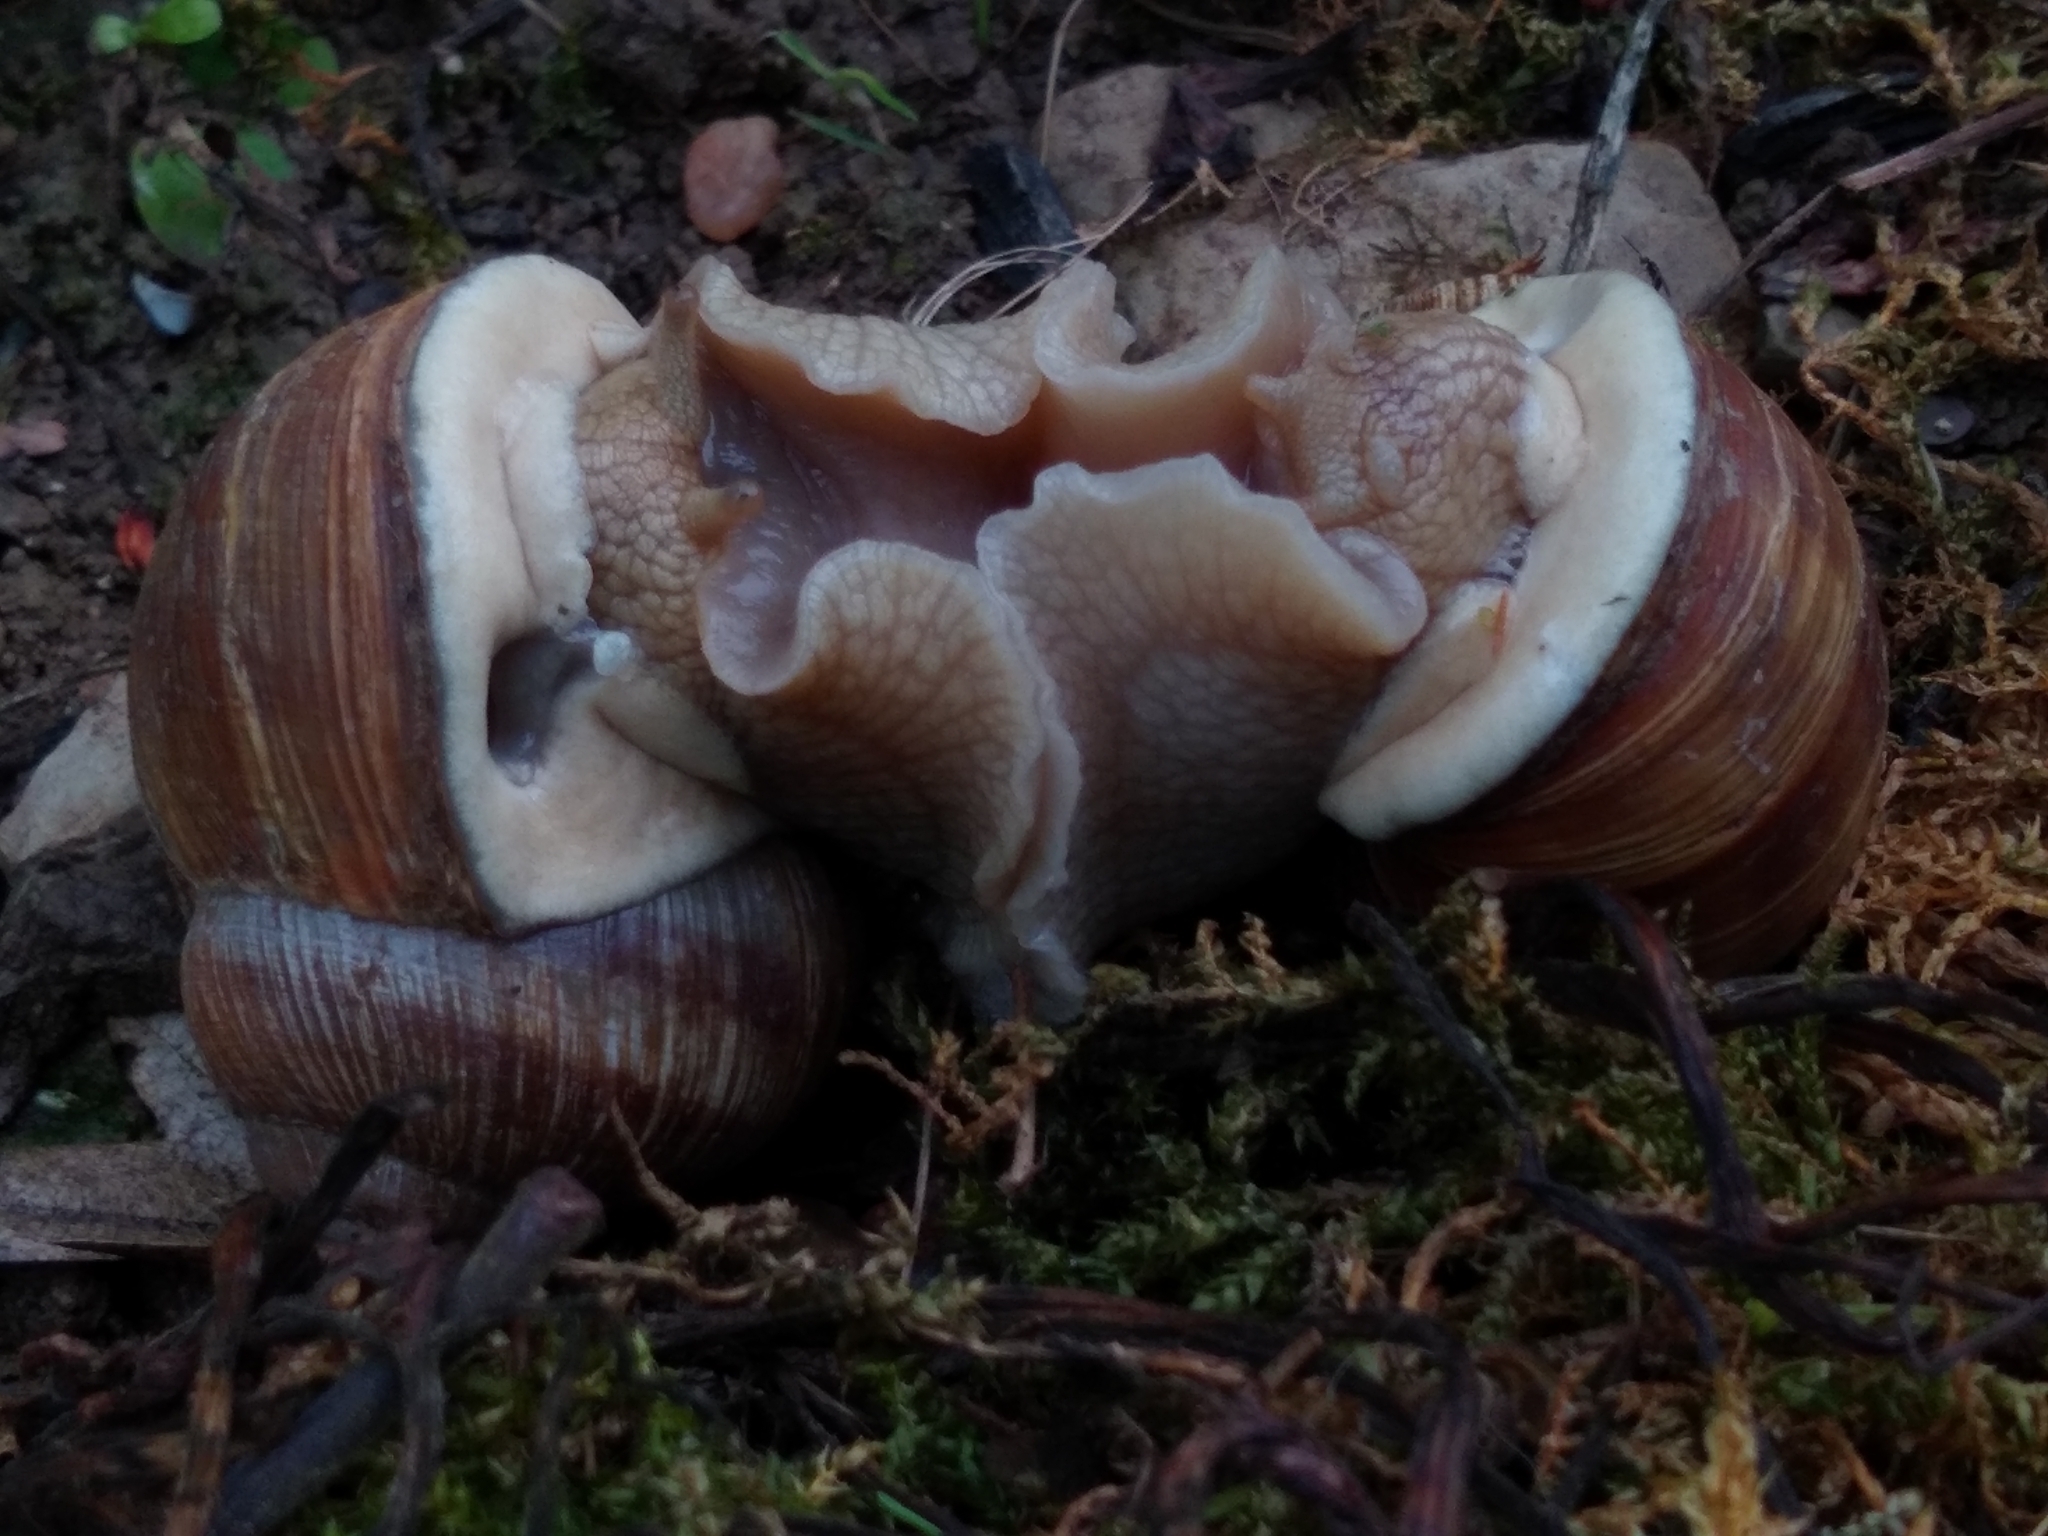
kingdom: Animalia
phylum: Mollusca
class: Gastropoda
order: Stylommatophora
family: Helicidae
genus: Helix
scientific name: Helix pomatia
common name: Roman snail
